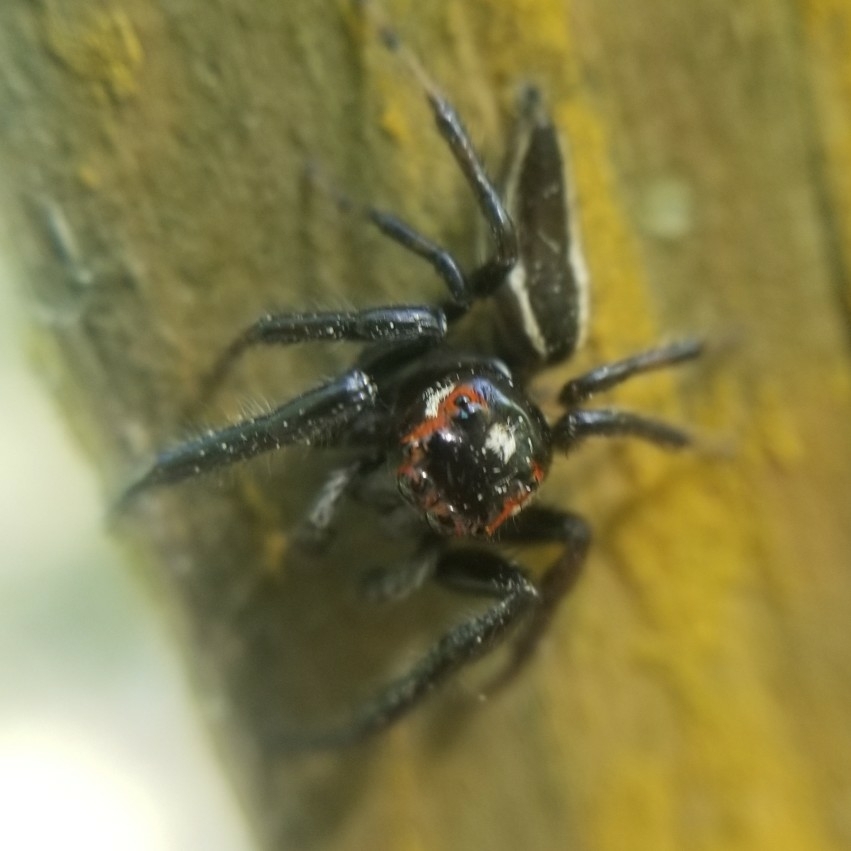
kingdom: Animalia
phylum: Arthropoda
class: Arachnida
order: Araneae
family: Salticidae
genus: Colonus
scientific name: Colonus sylvanus
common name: Jumping spiders
